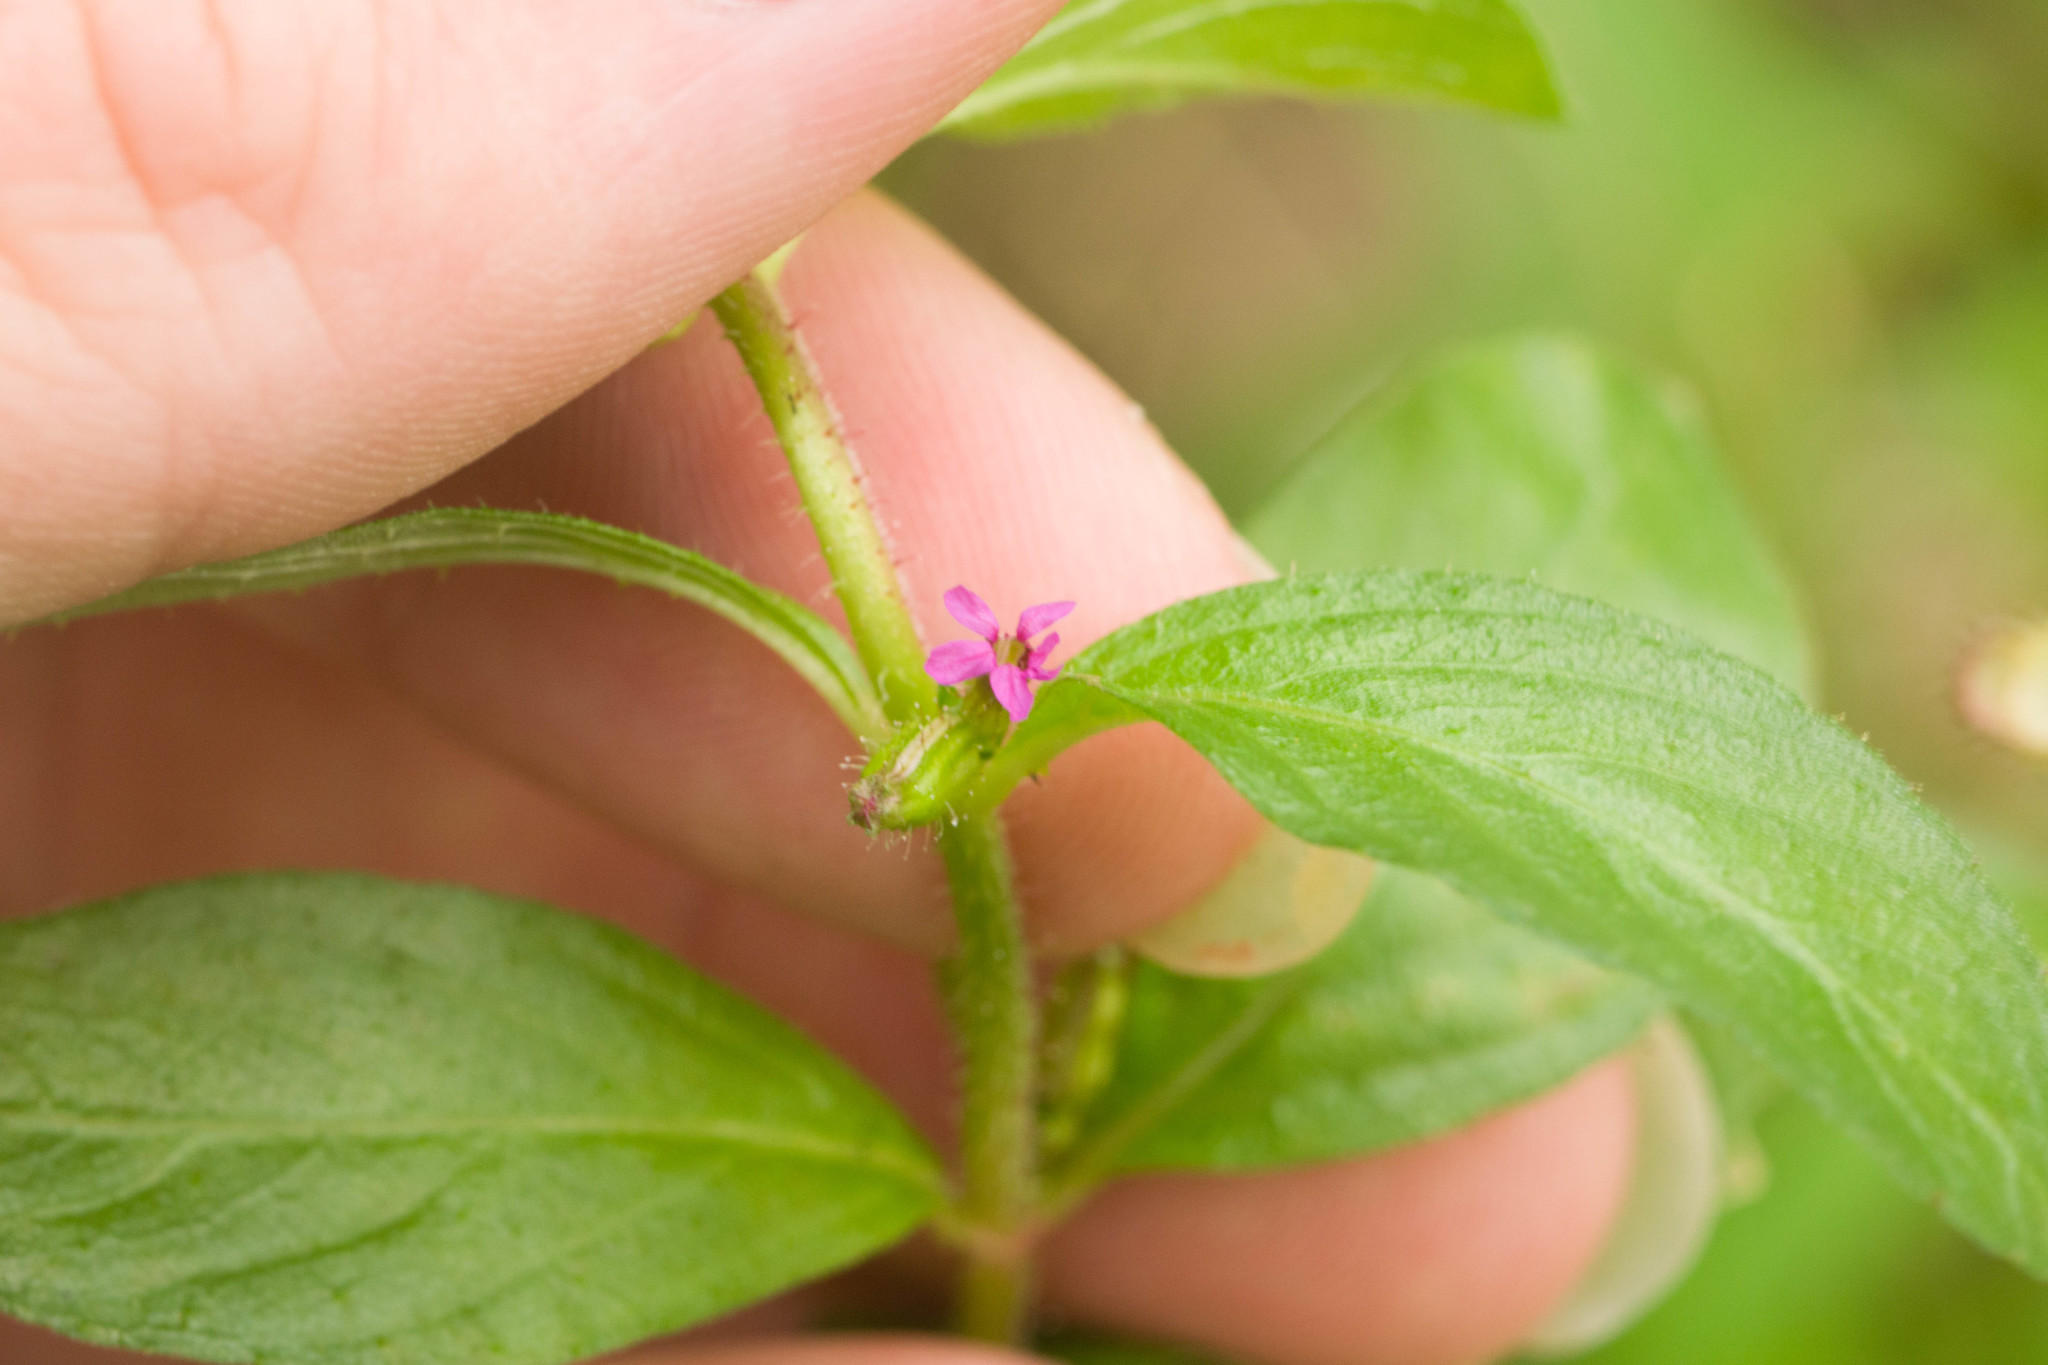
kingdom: Plantae
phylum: Tracheophyta
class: Magnoliopsida
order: Myrtales
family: Lythraceae
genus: Cuphea
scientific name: Cuphea carthagenensis
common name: Colombian waxweed
